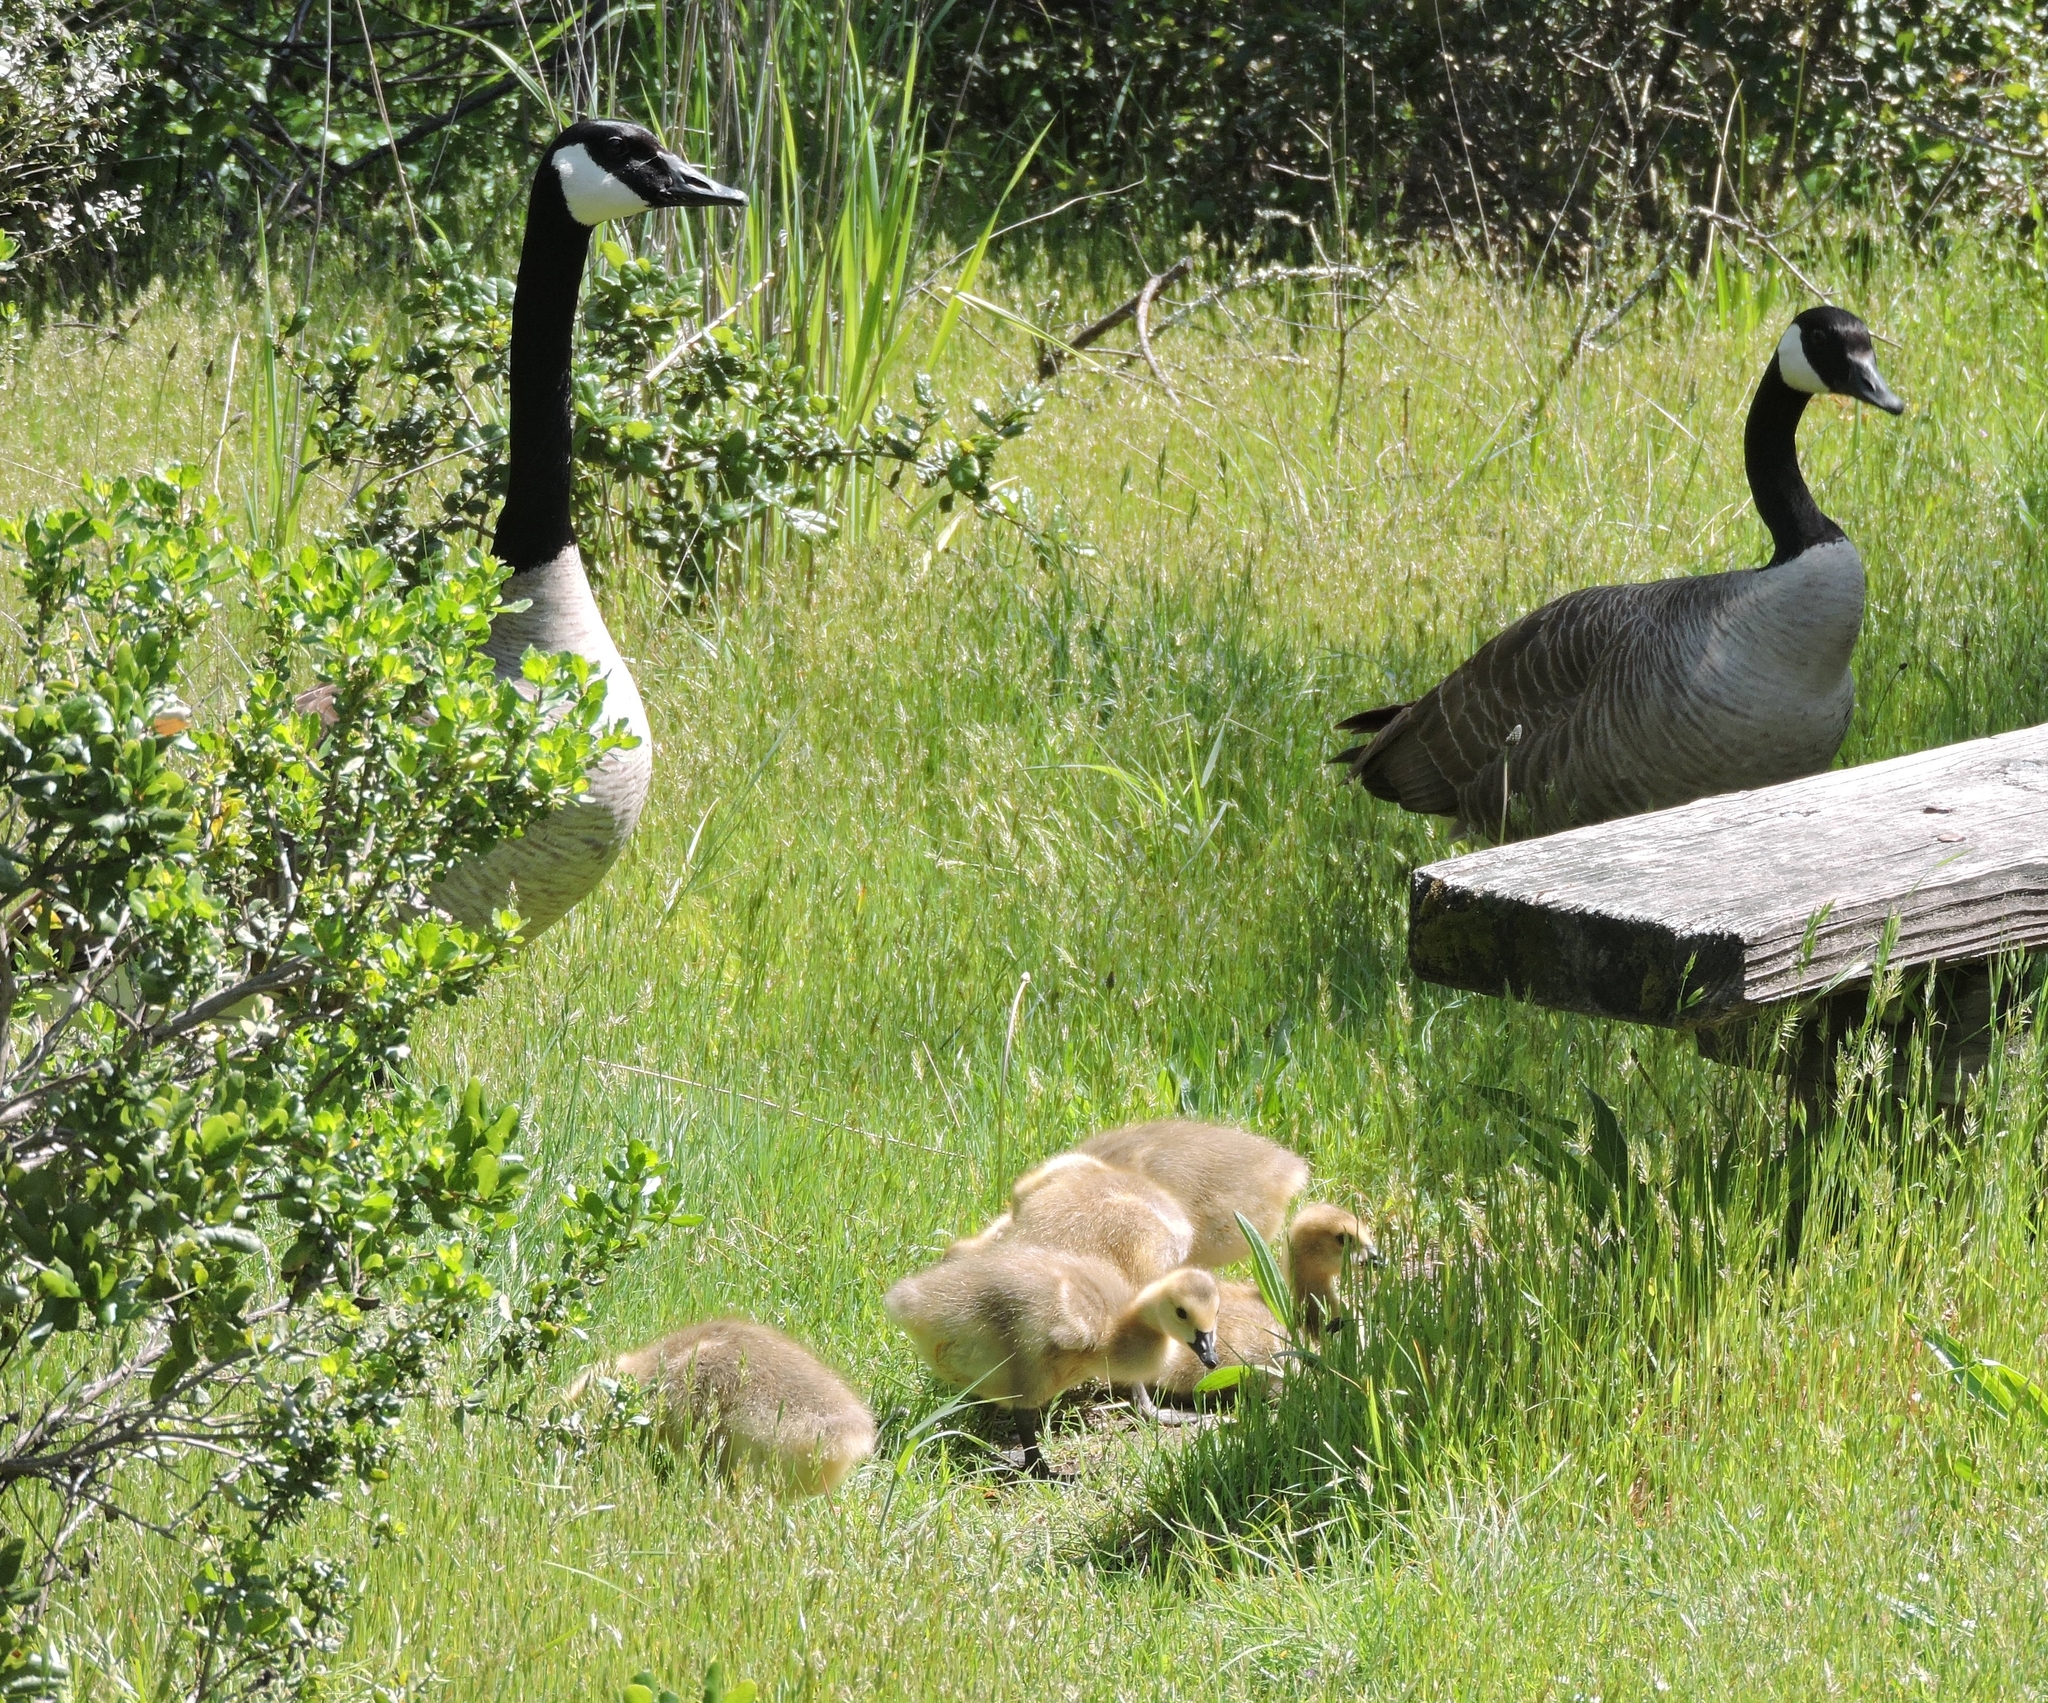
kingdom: Animalia
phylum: Chordata
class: Aves
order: Anseriformes
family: Anatidae
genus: Branta
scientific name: Branta canadensis
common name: Canada goose
